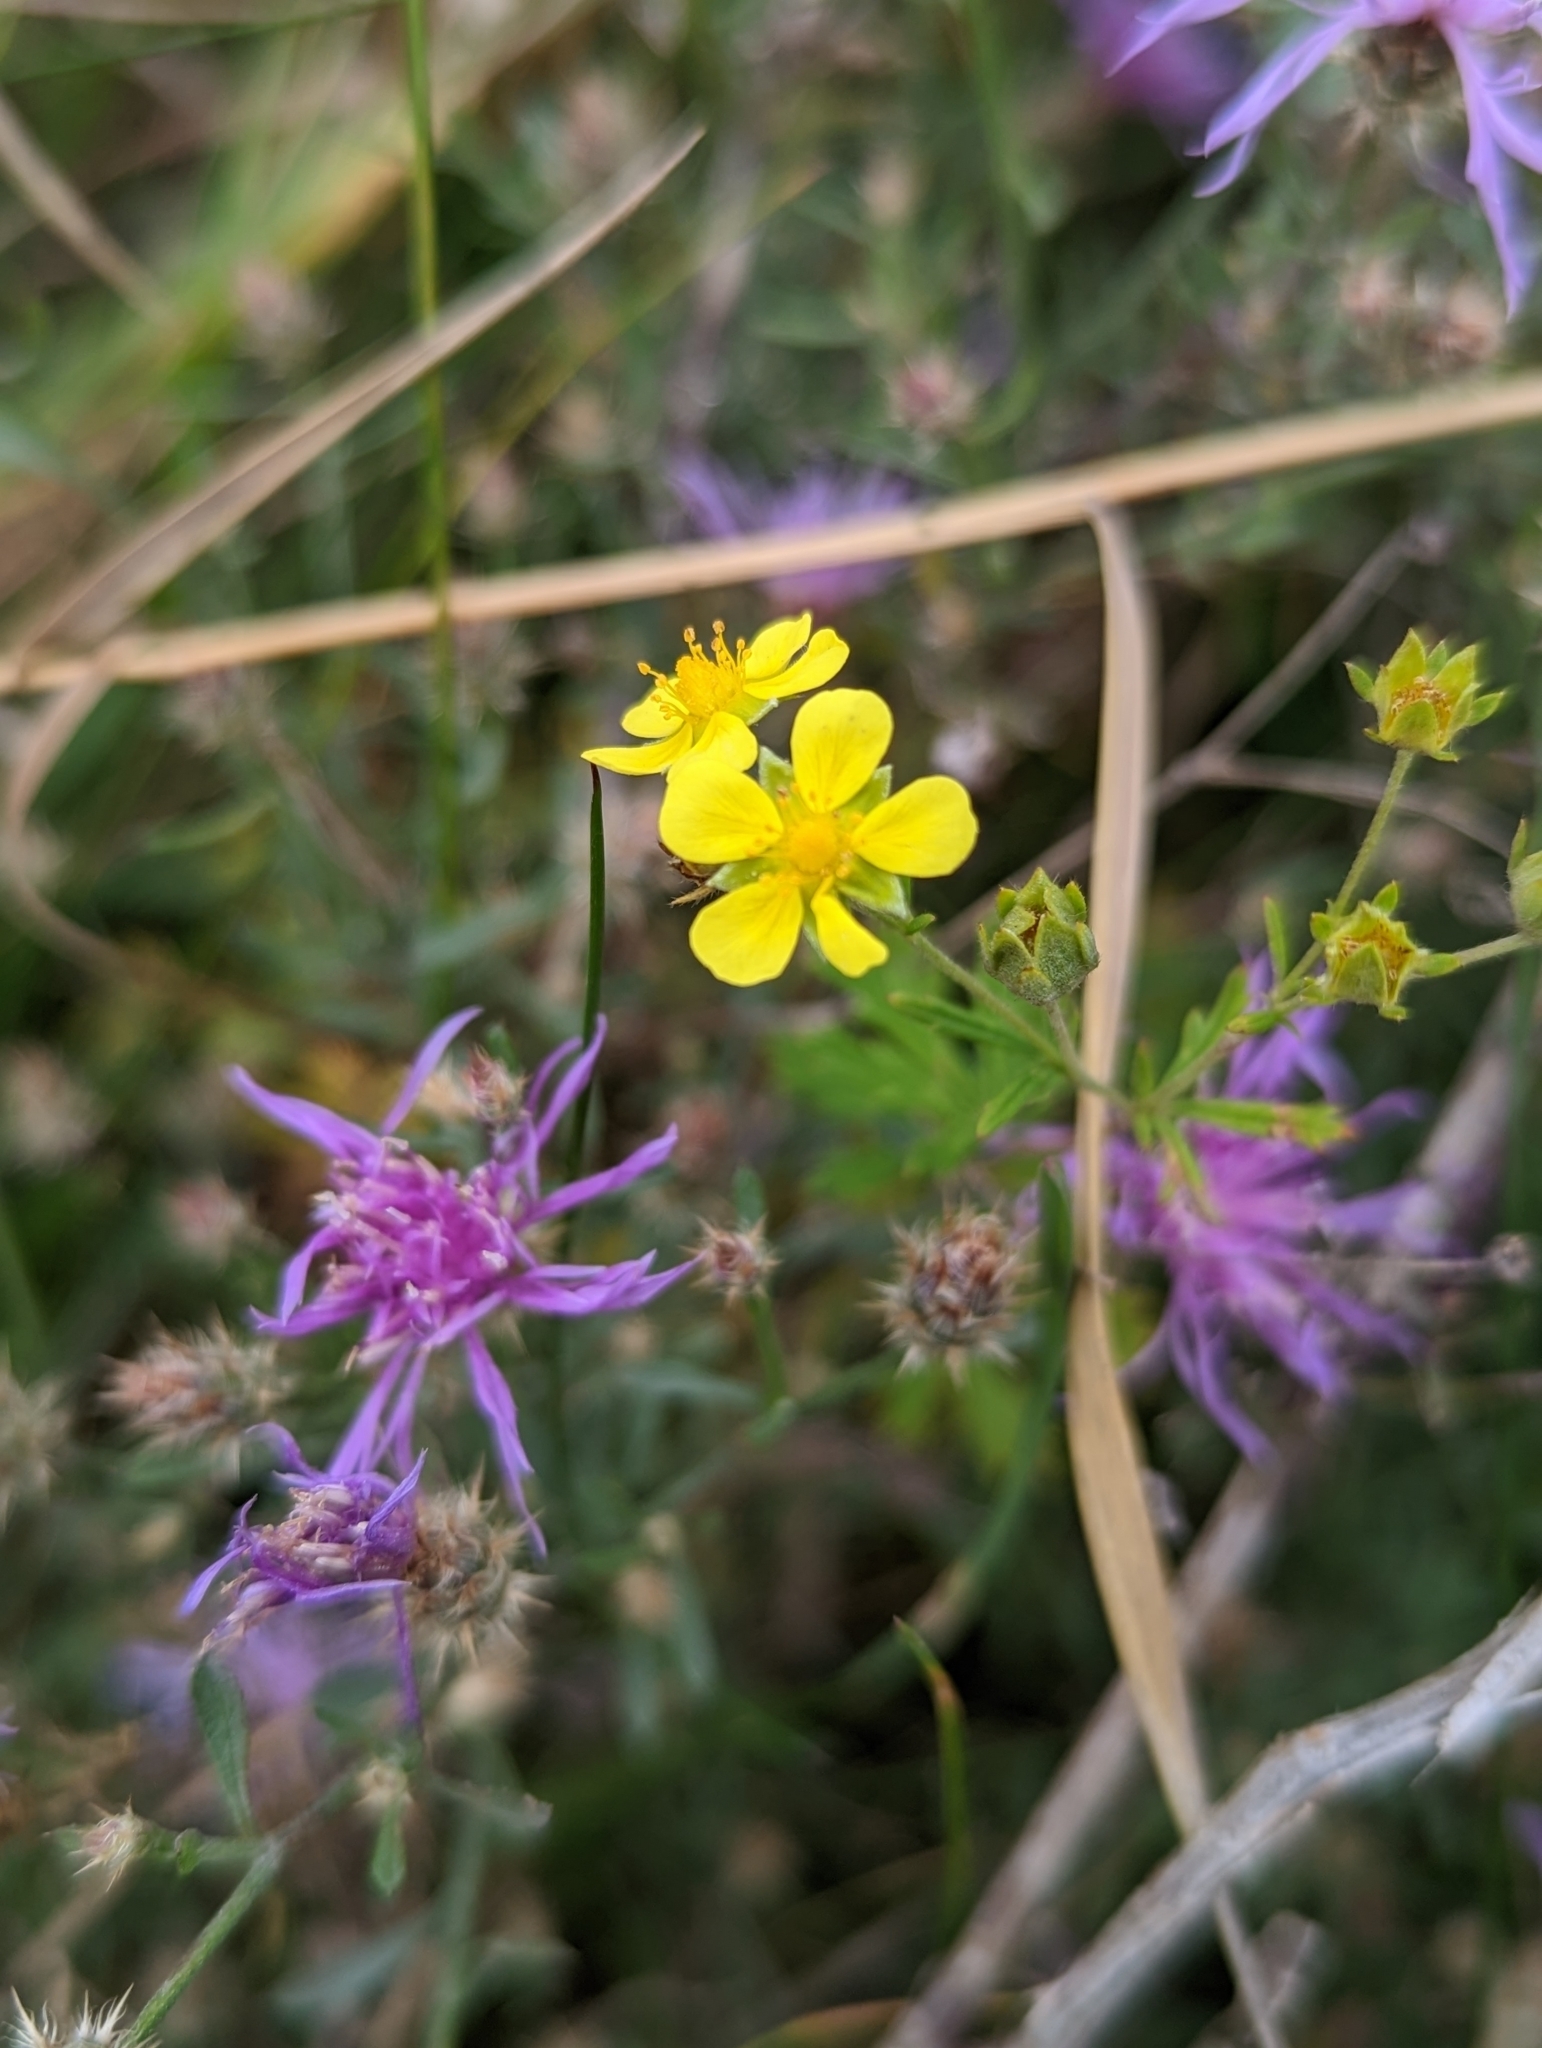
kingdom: Plantae
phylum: Tracheophyta
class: Magnoliopsida
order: Rosales
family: Rosaceae
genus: Potentilla
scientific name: Potentilla argentea
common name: Hoary cinquefoil
